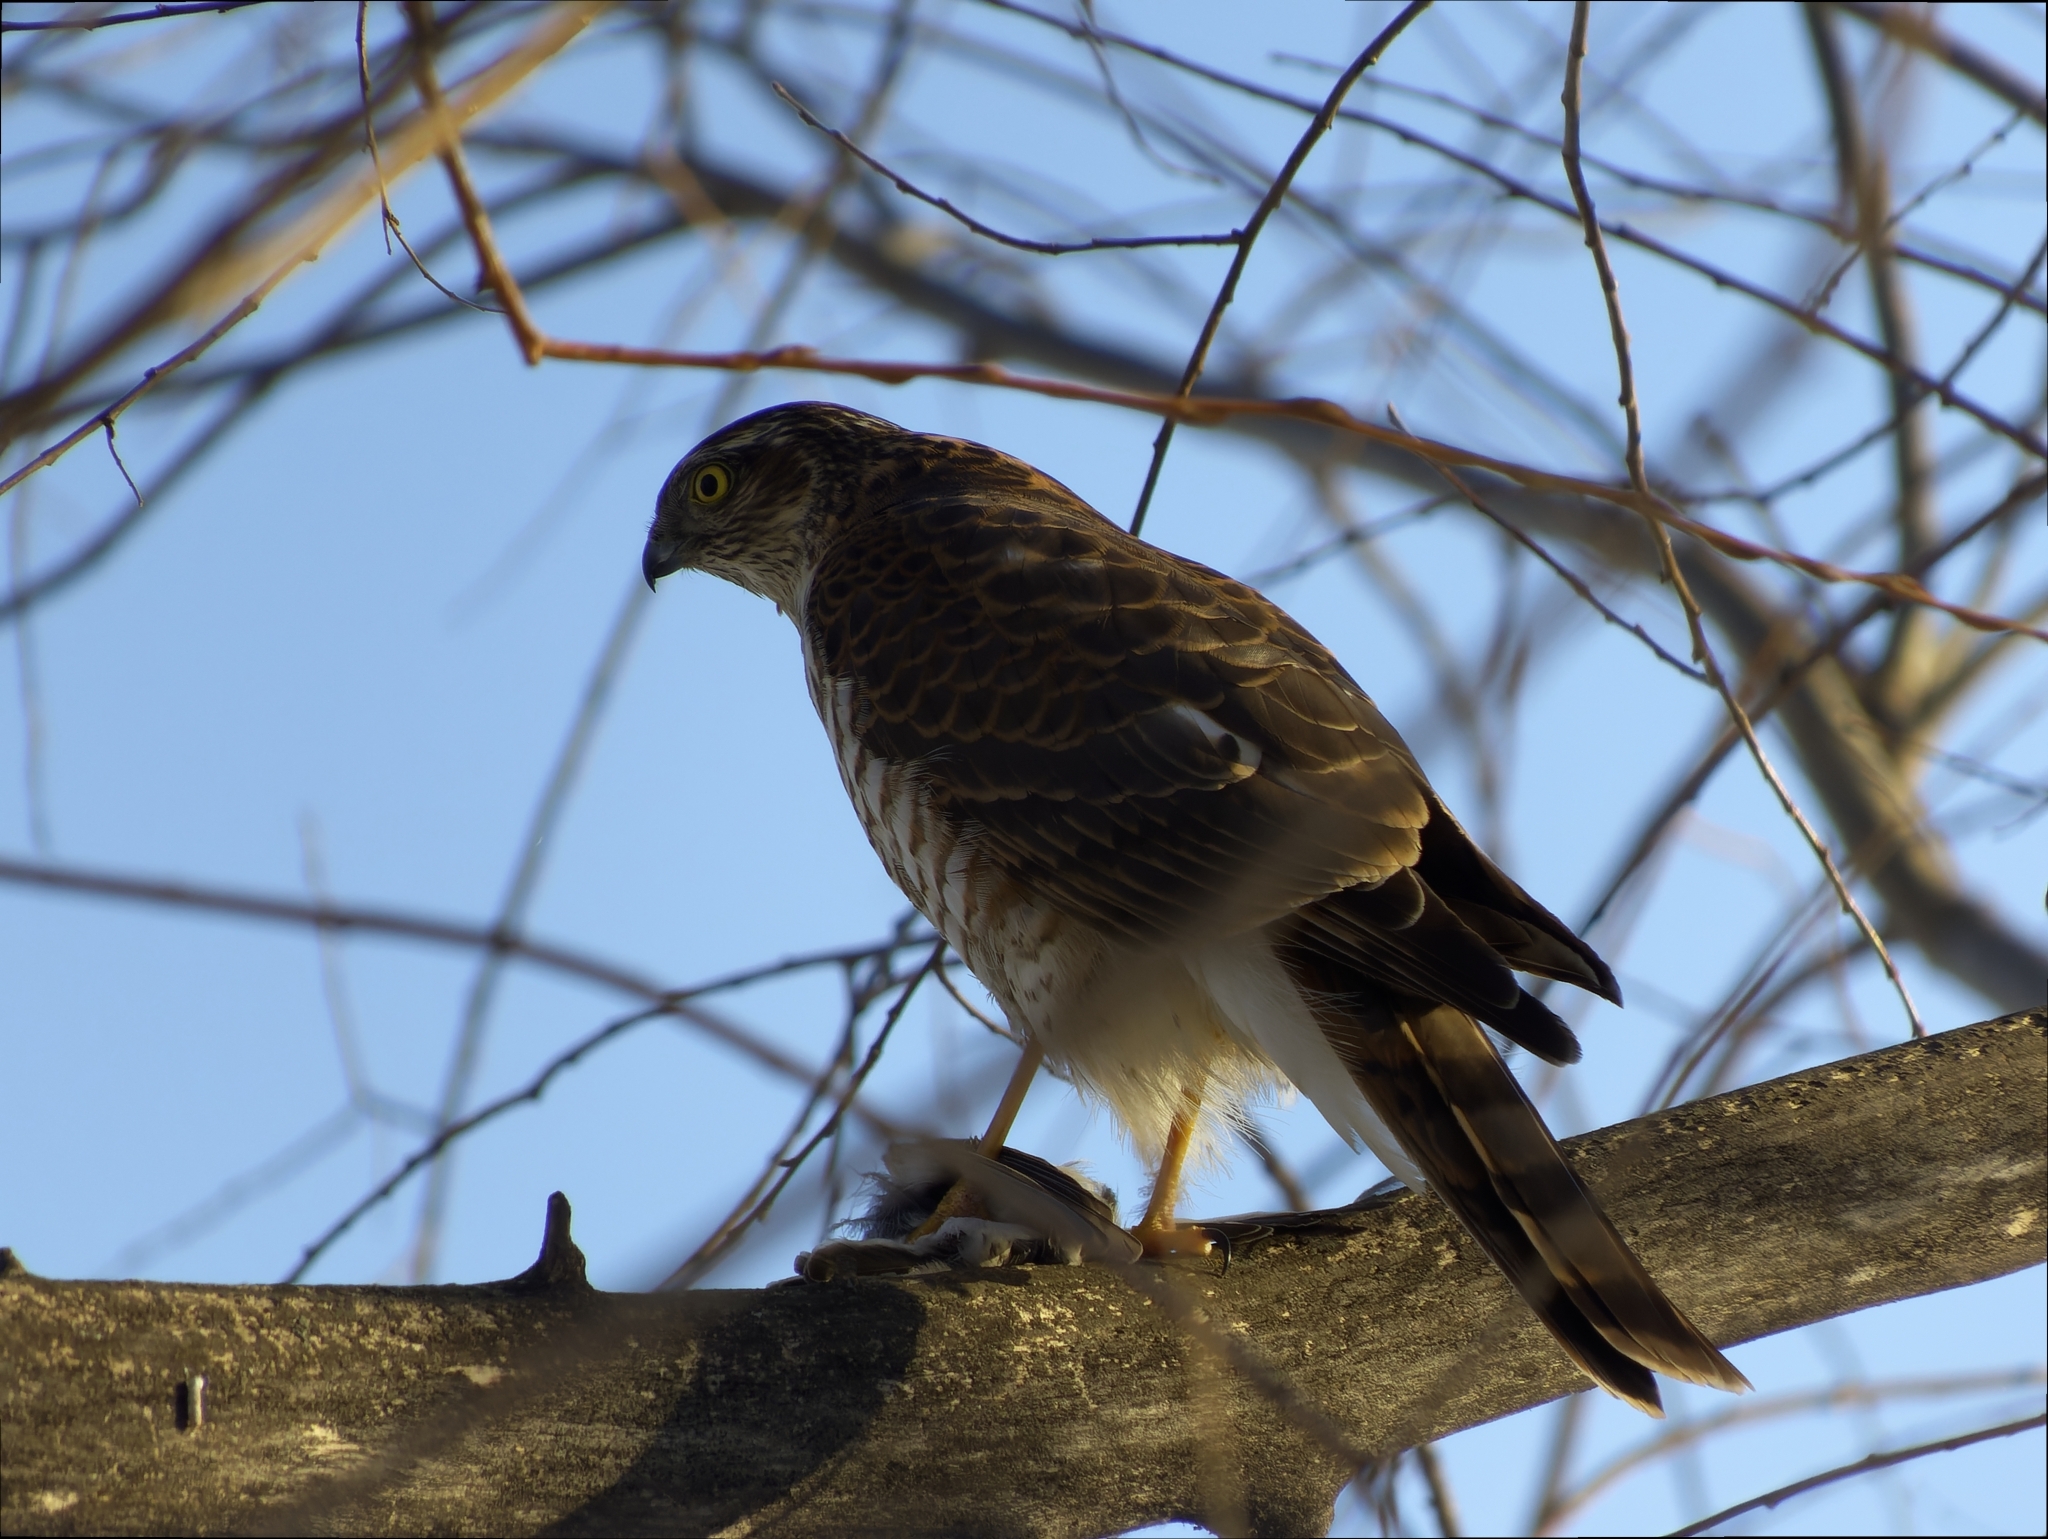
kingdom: Animalia
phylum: Chordata
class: Aves
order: Accipitriformes
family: Accipitridae
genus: Accipiter
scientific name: Accipiter nisus
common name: Eurasian sparrowhawk
